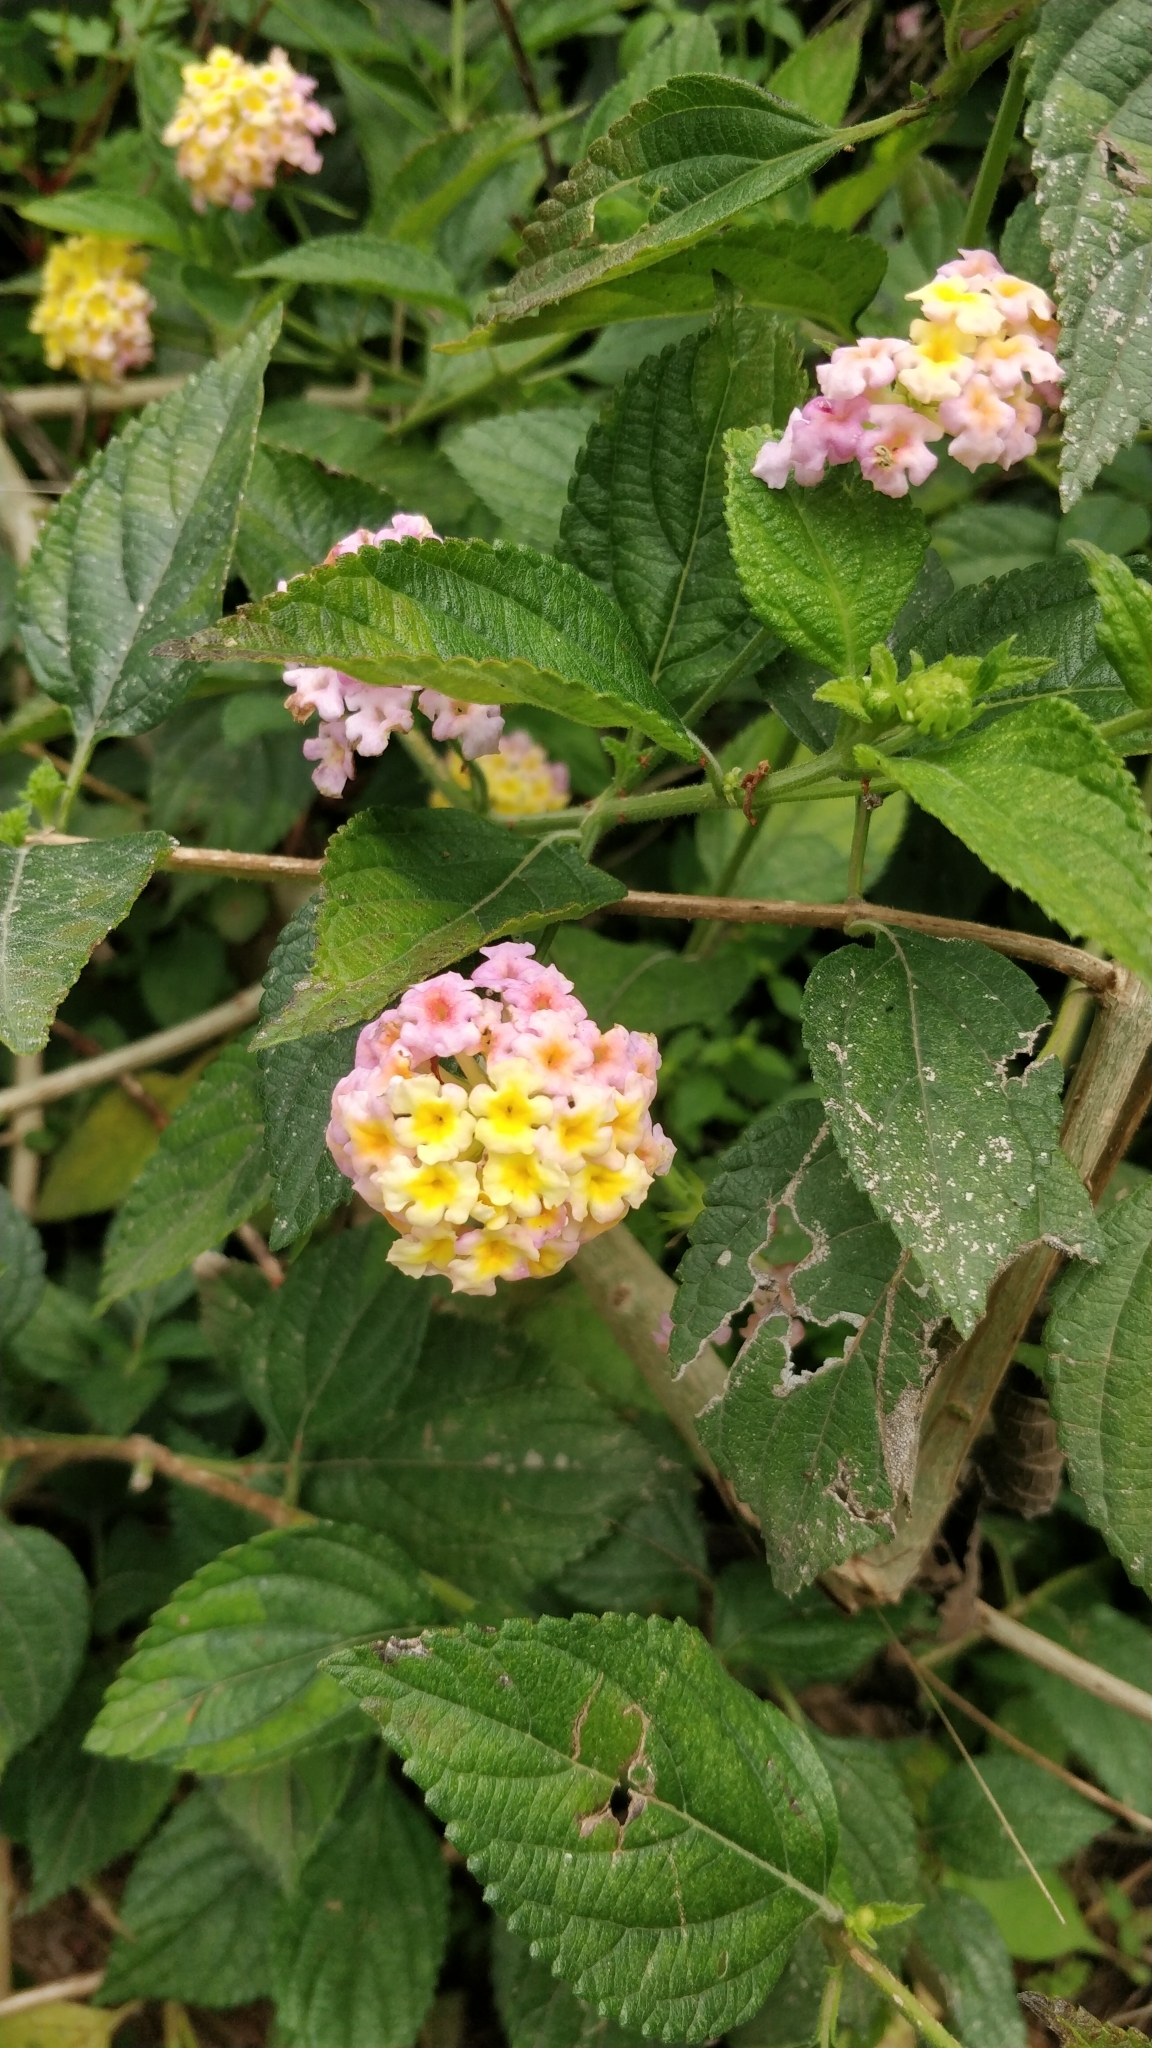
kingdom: Plantae
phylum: Tracheophyta
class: Magnoliopsida
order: Lamiales
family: Verbenaceae
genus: Lantana
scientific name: Lantana camara
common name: Lantana
